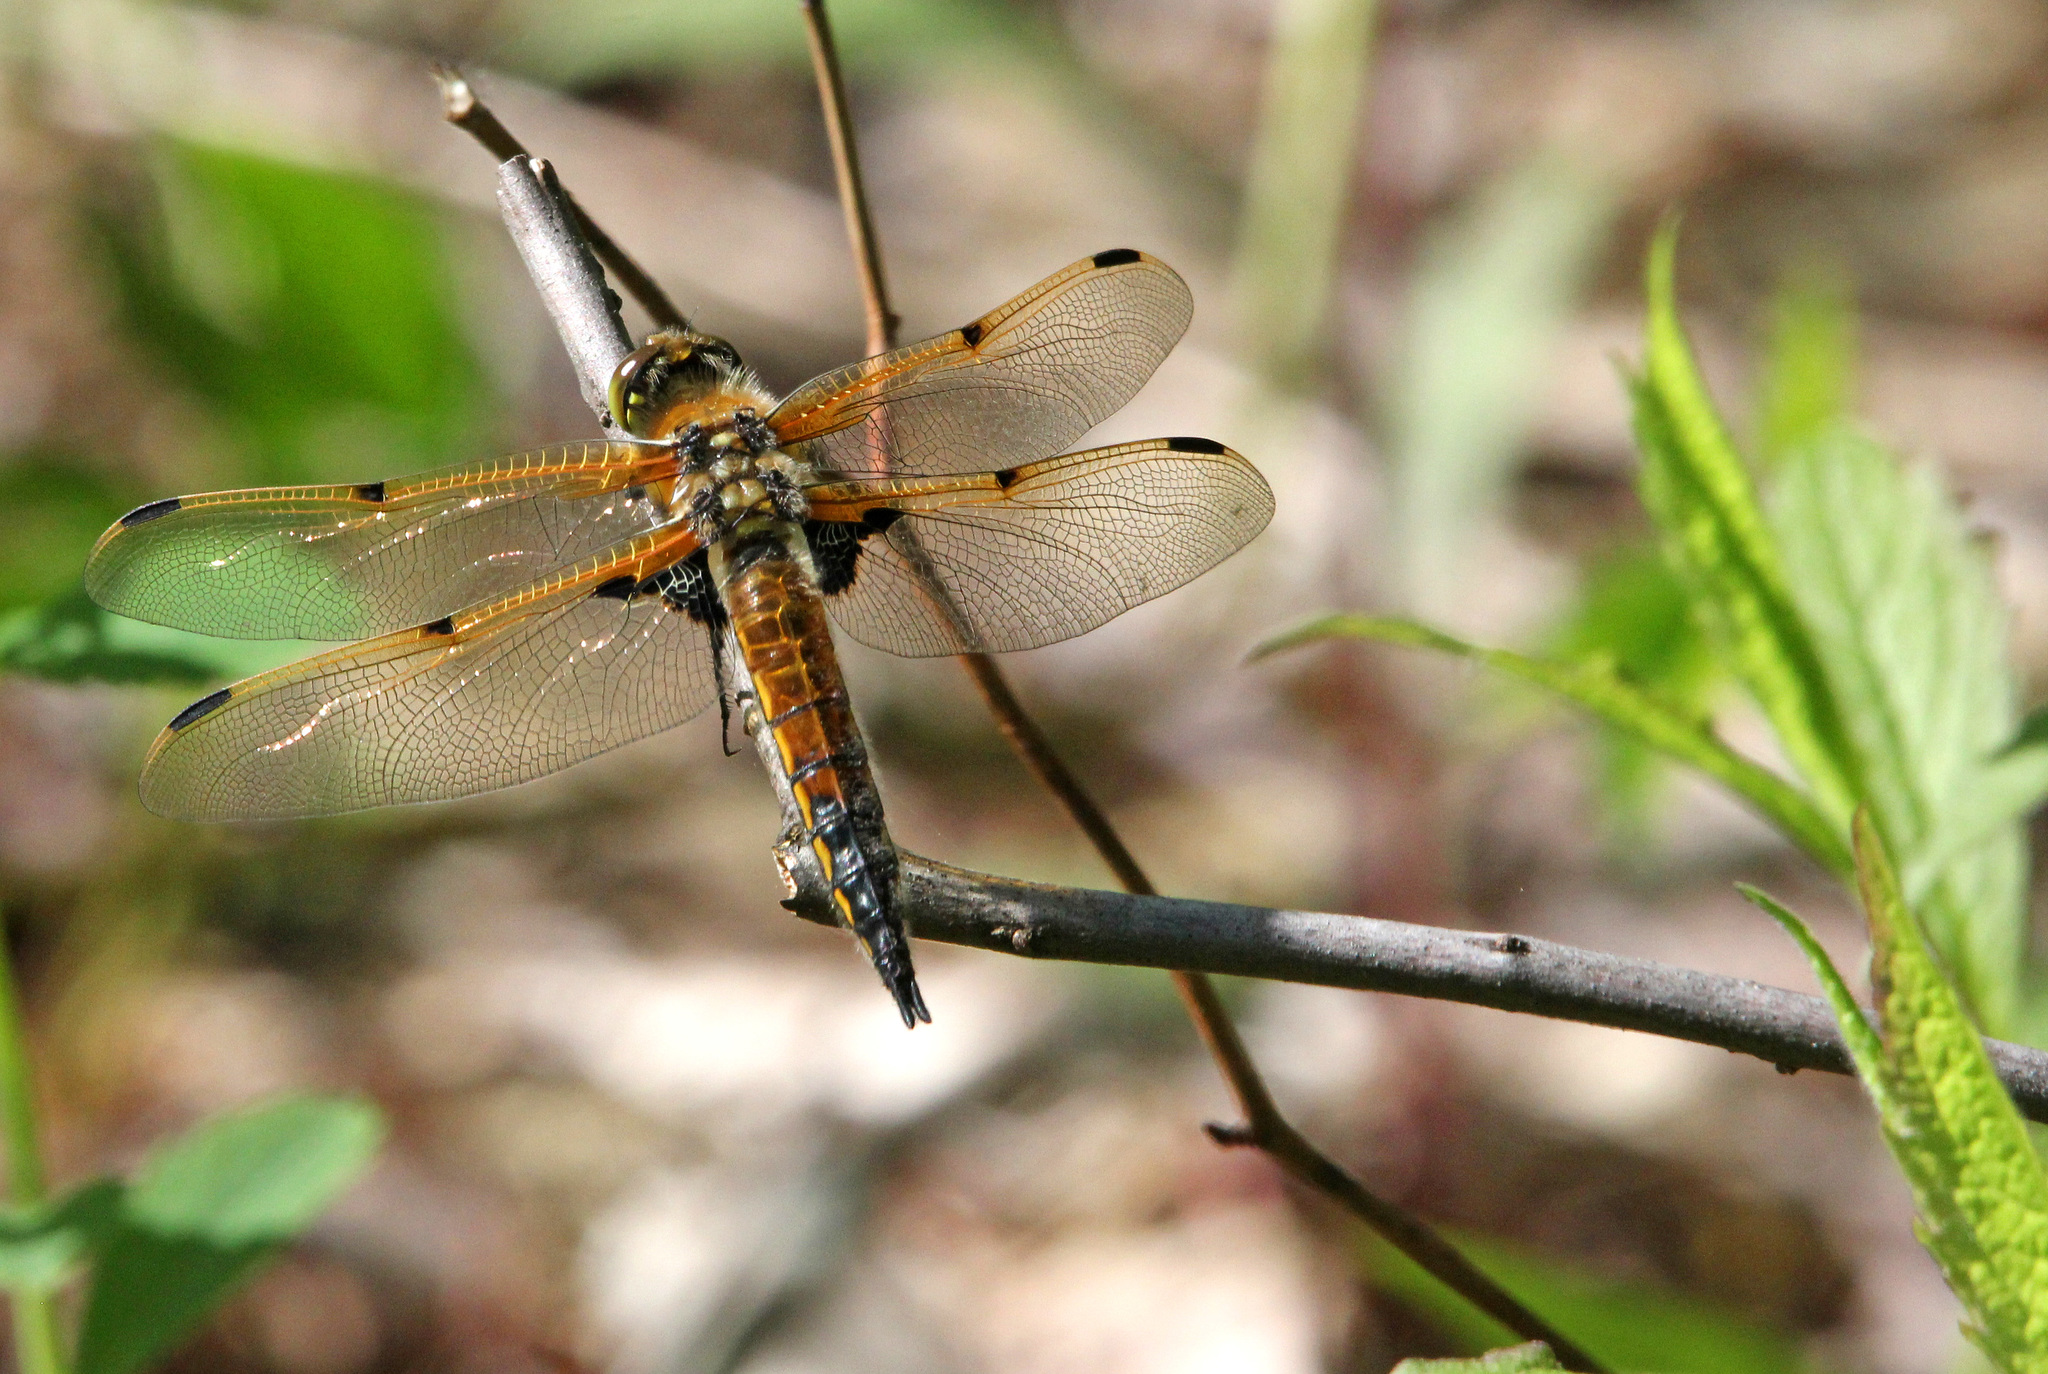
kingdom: Animalia
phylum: Arthropoda
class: Insecta
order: Odonata
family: Libellulidae
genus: Libellula
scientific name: Libellula quadrimaculata
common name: Four-spotted chaser
